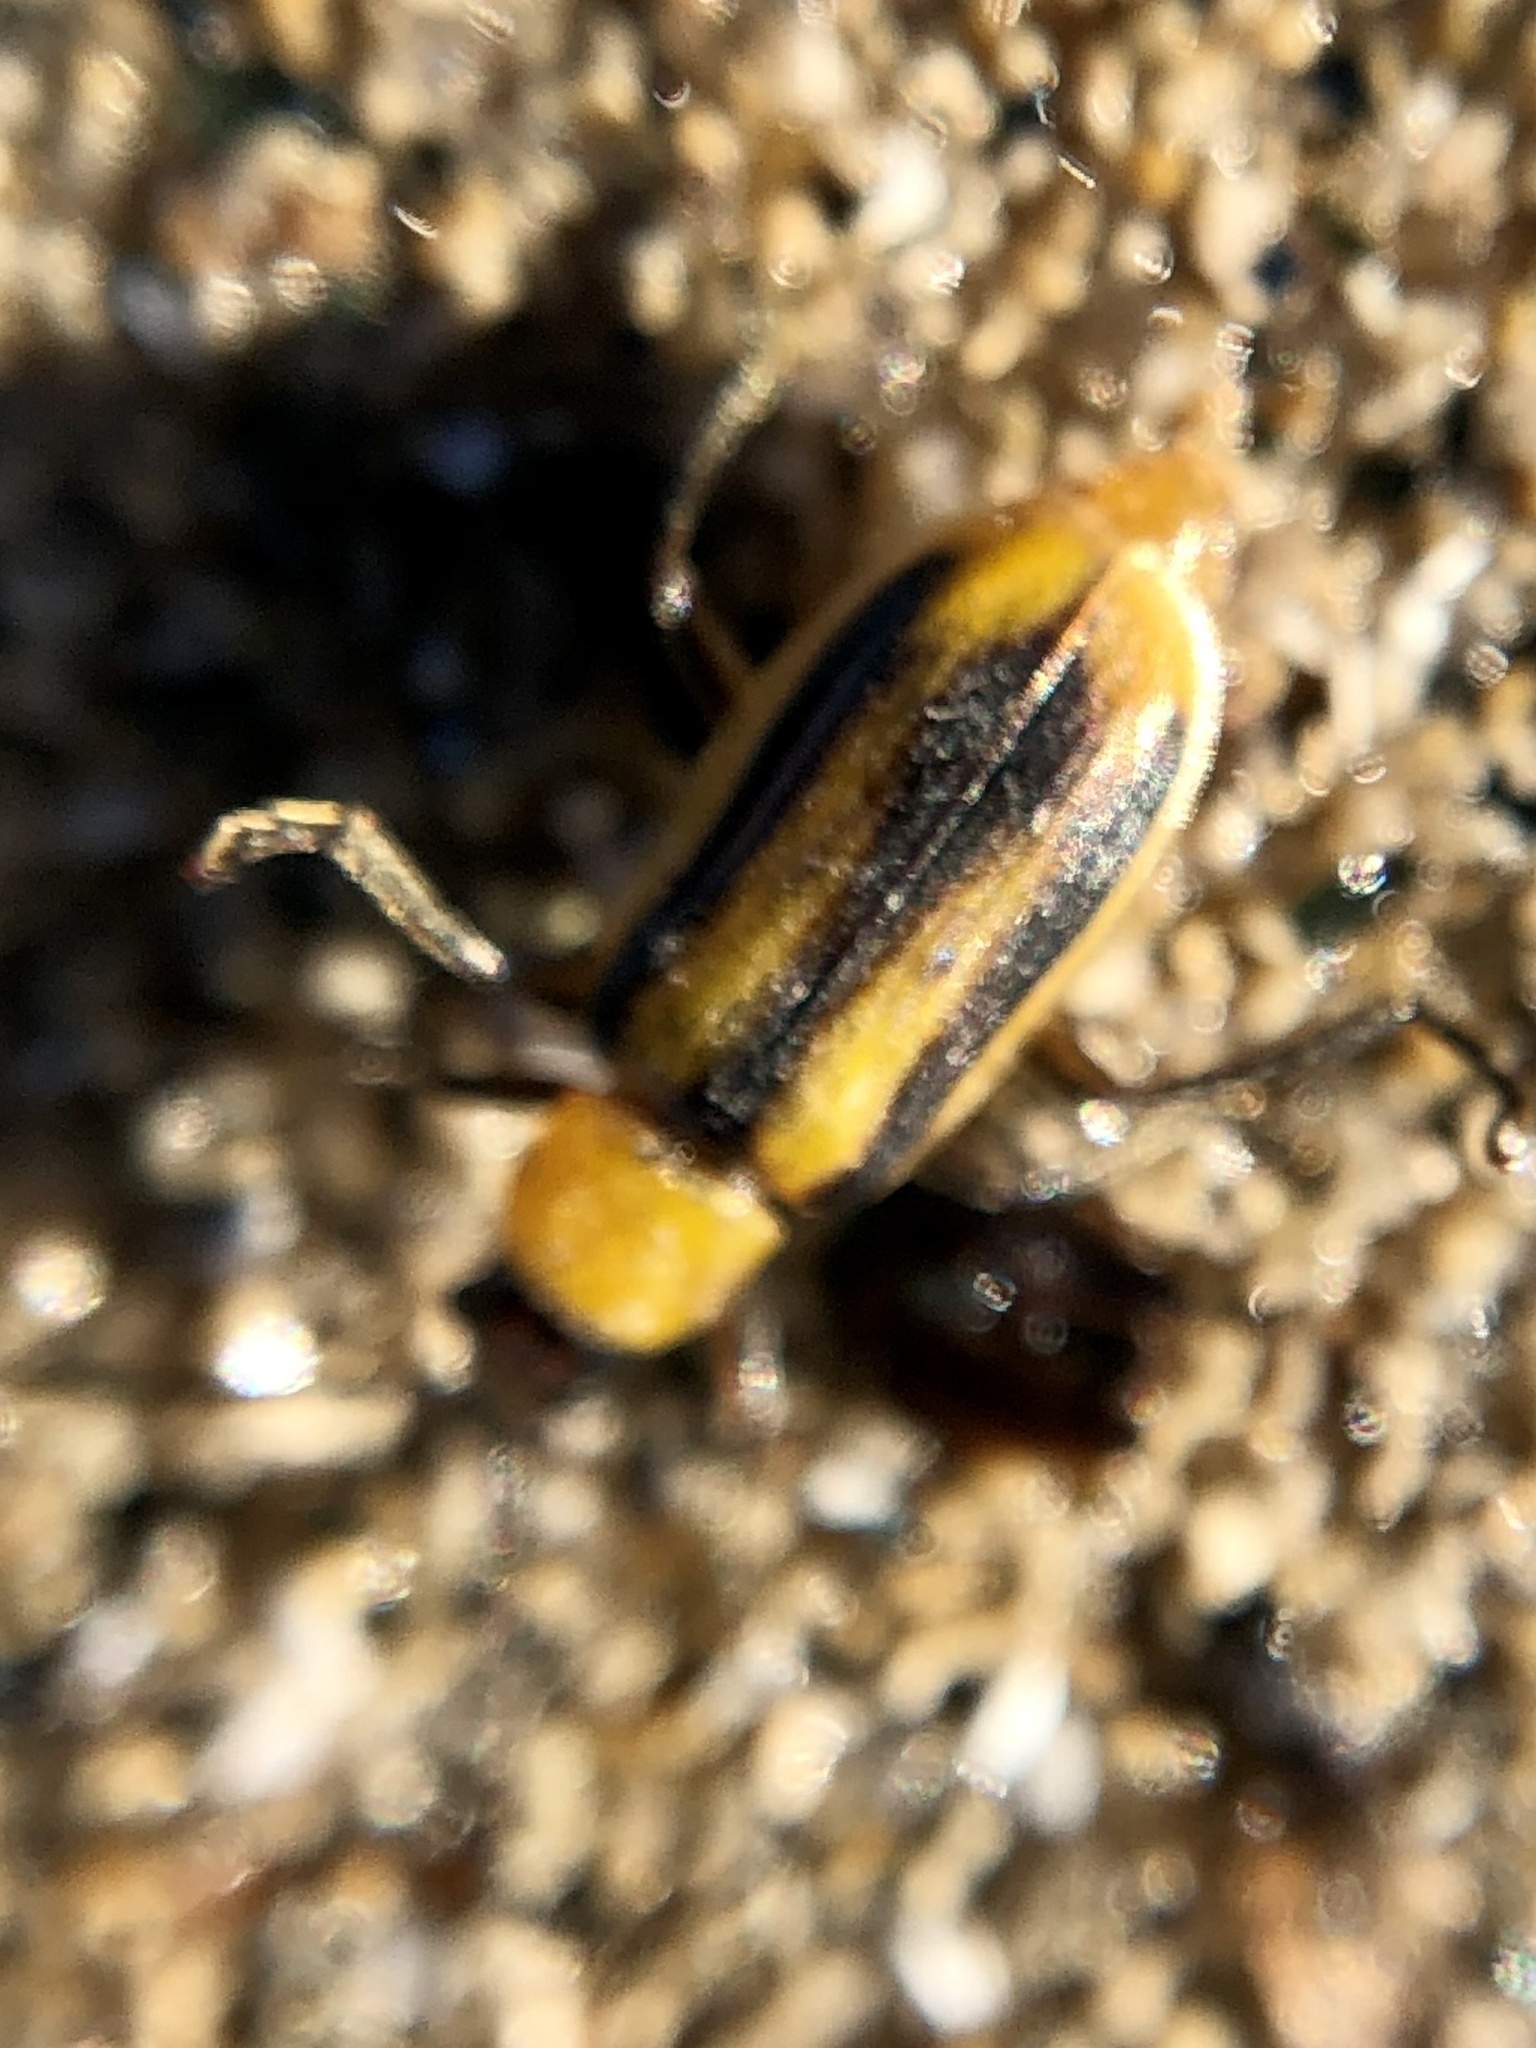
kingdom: Animalia
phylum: Arthropoda
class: Insecta
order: Coleoptera
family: Chrysomelidae
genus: Diabrotica
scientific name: Diabrotica virgifera
